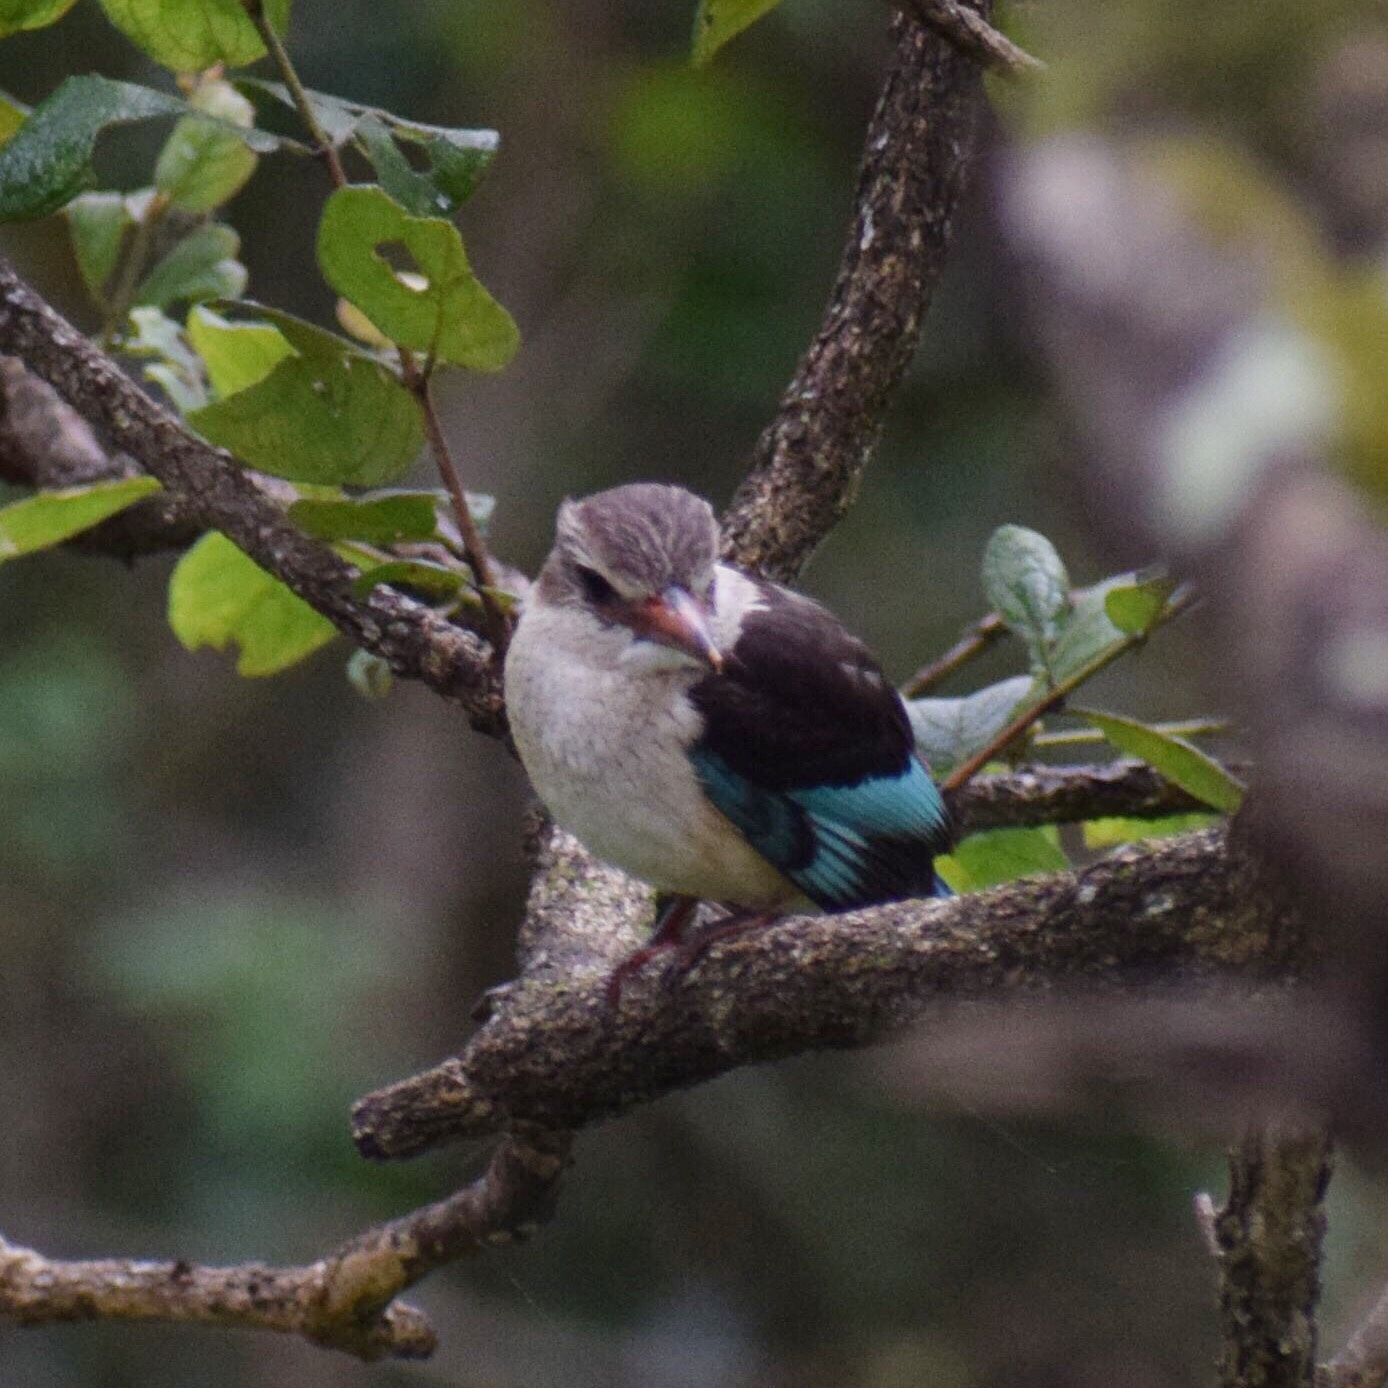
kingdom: Animalia
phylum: Chordata
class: Aves
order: Coraciiformes
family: Alcedinidae
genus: Halcyon
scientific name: Halcyon albiventris
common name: Brown-hooded kingfisher
